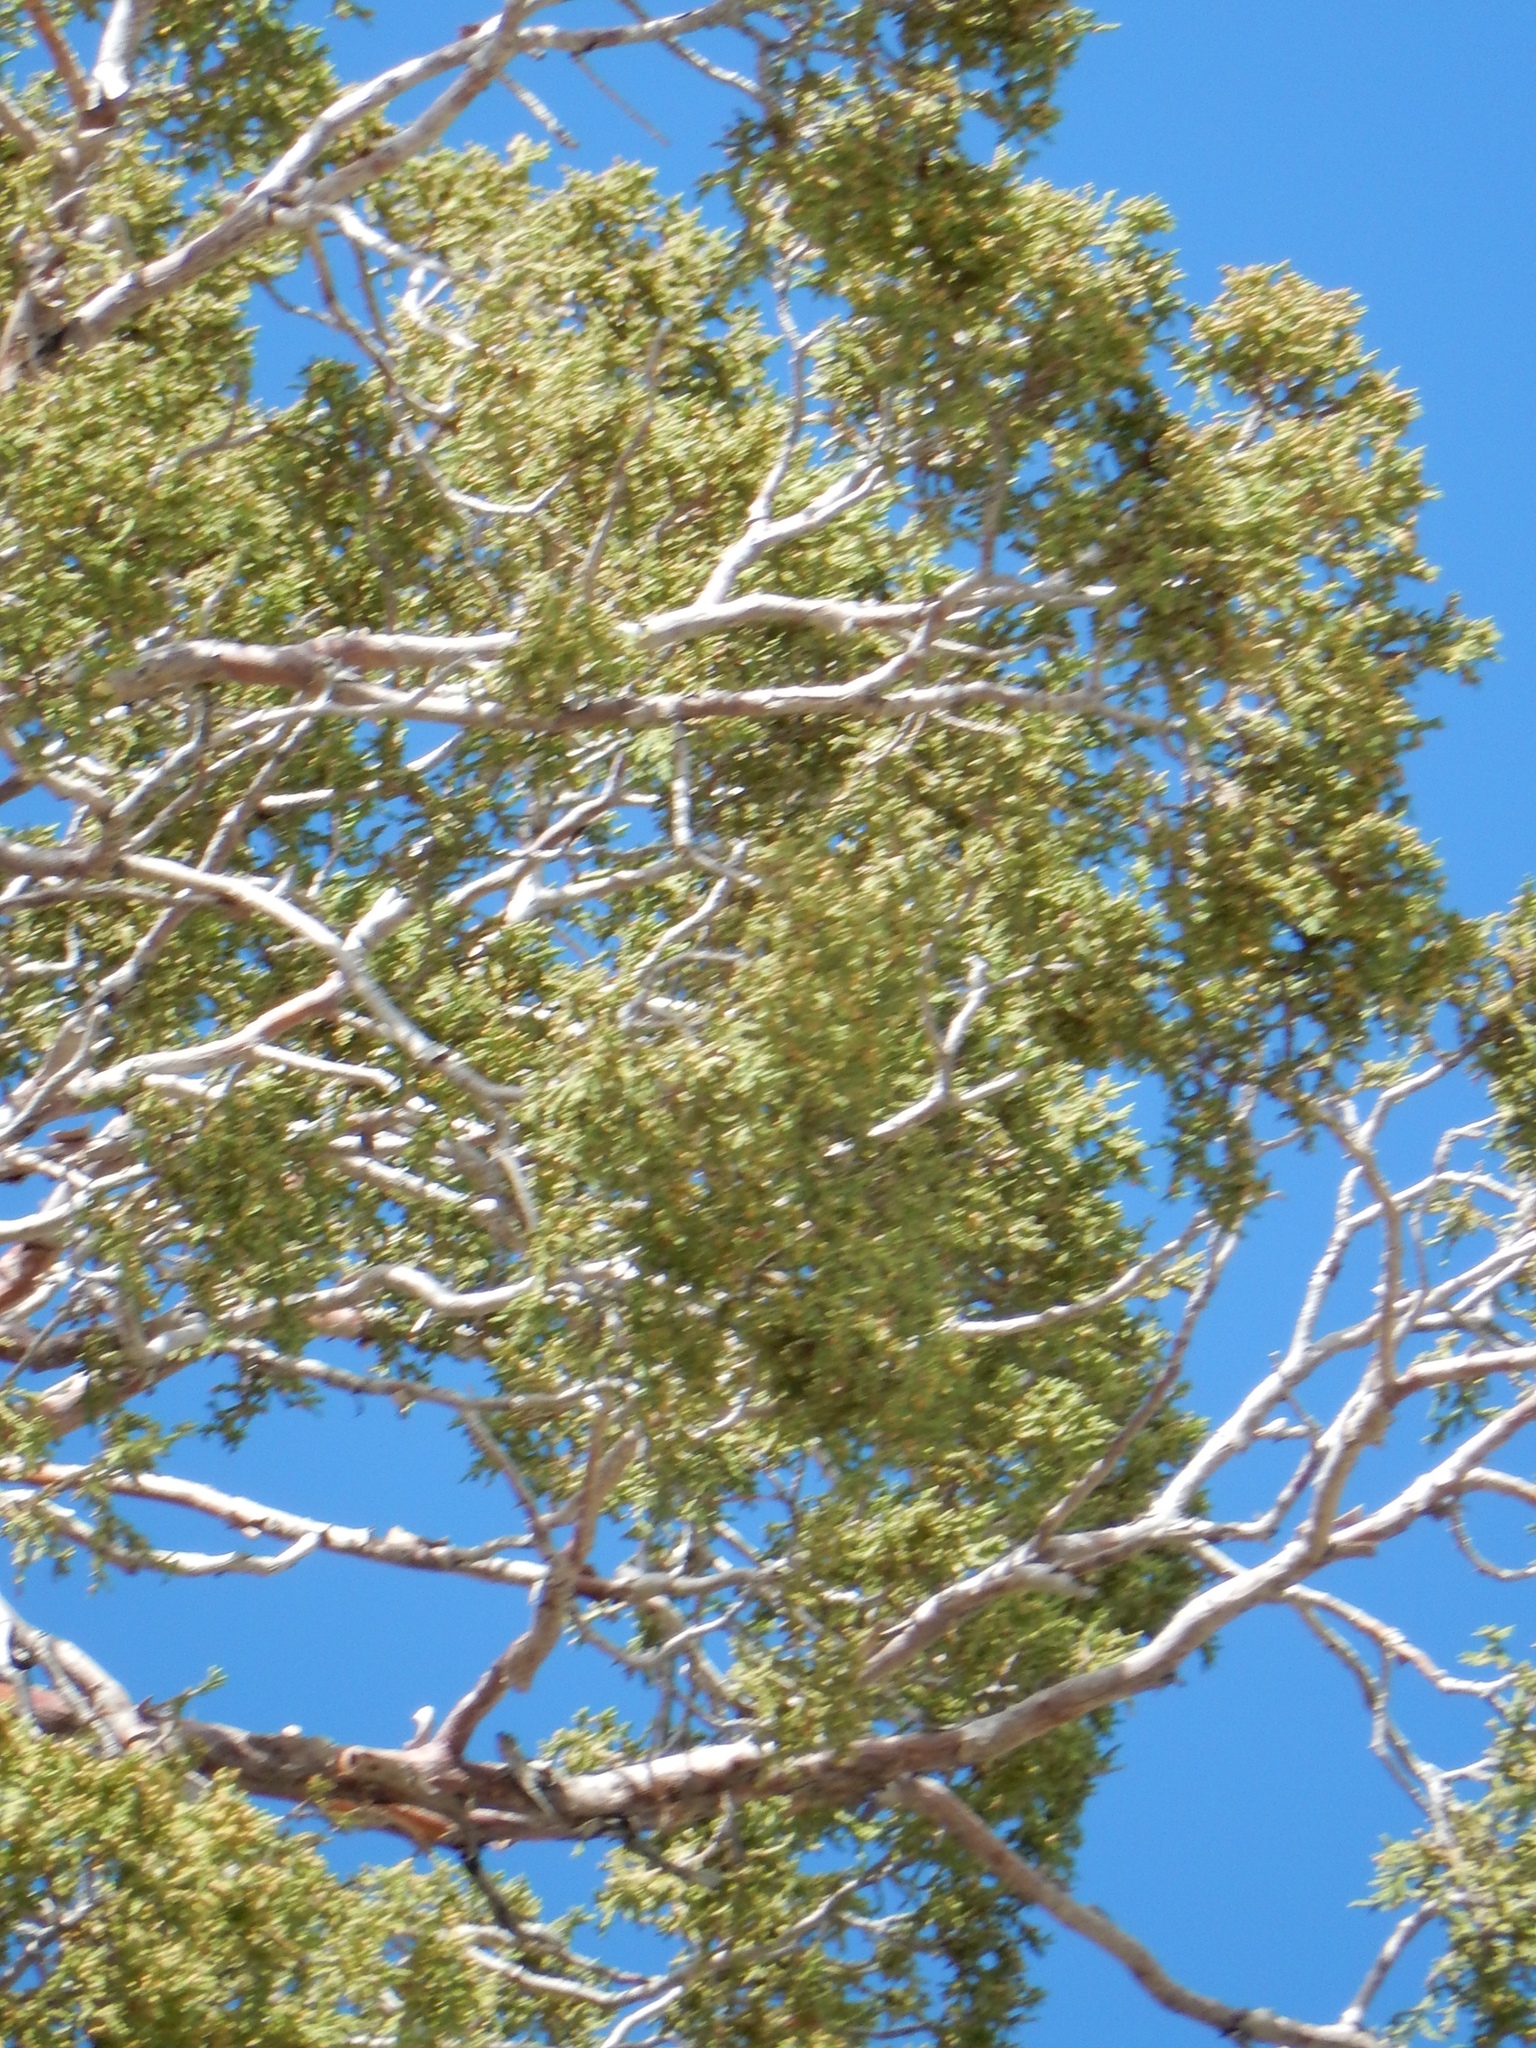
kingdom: Plantae
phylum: Tracheophyta
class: Pinopsida
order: Pinales
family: Cupressaceae
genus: Juniperus
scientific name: Juniperus osteosperma
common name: Utah juniper
